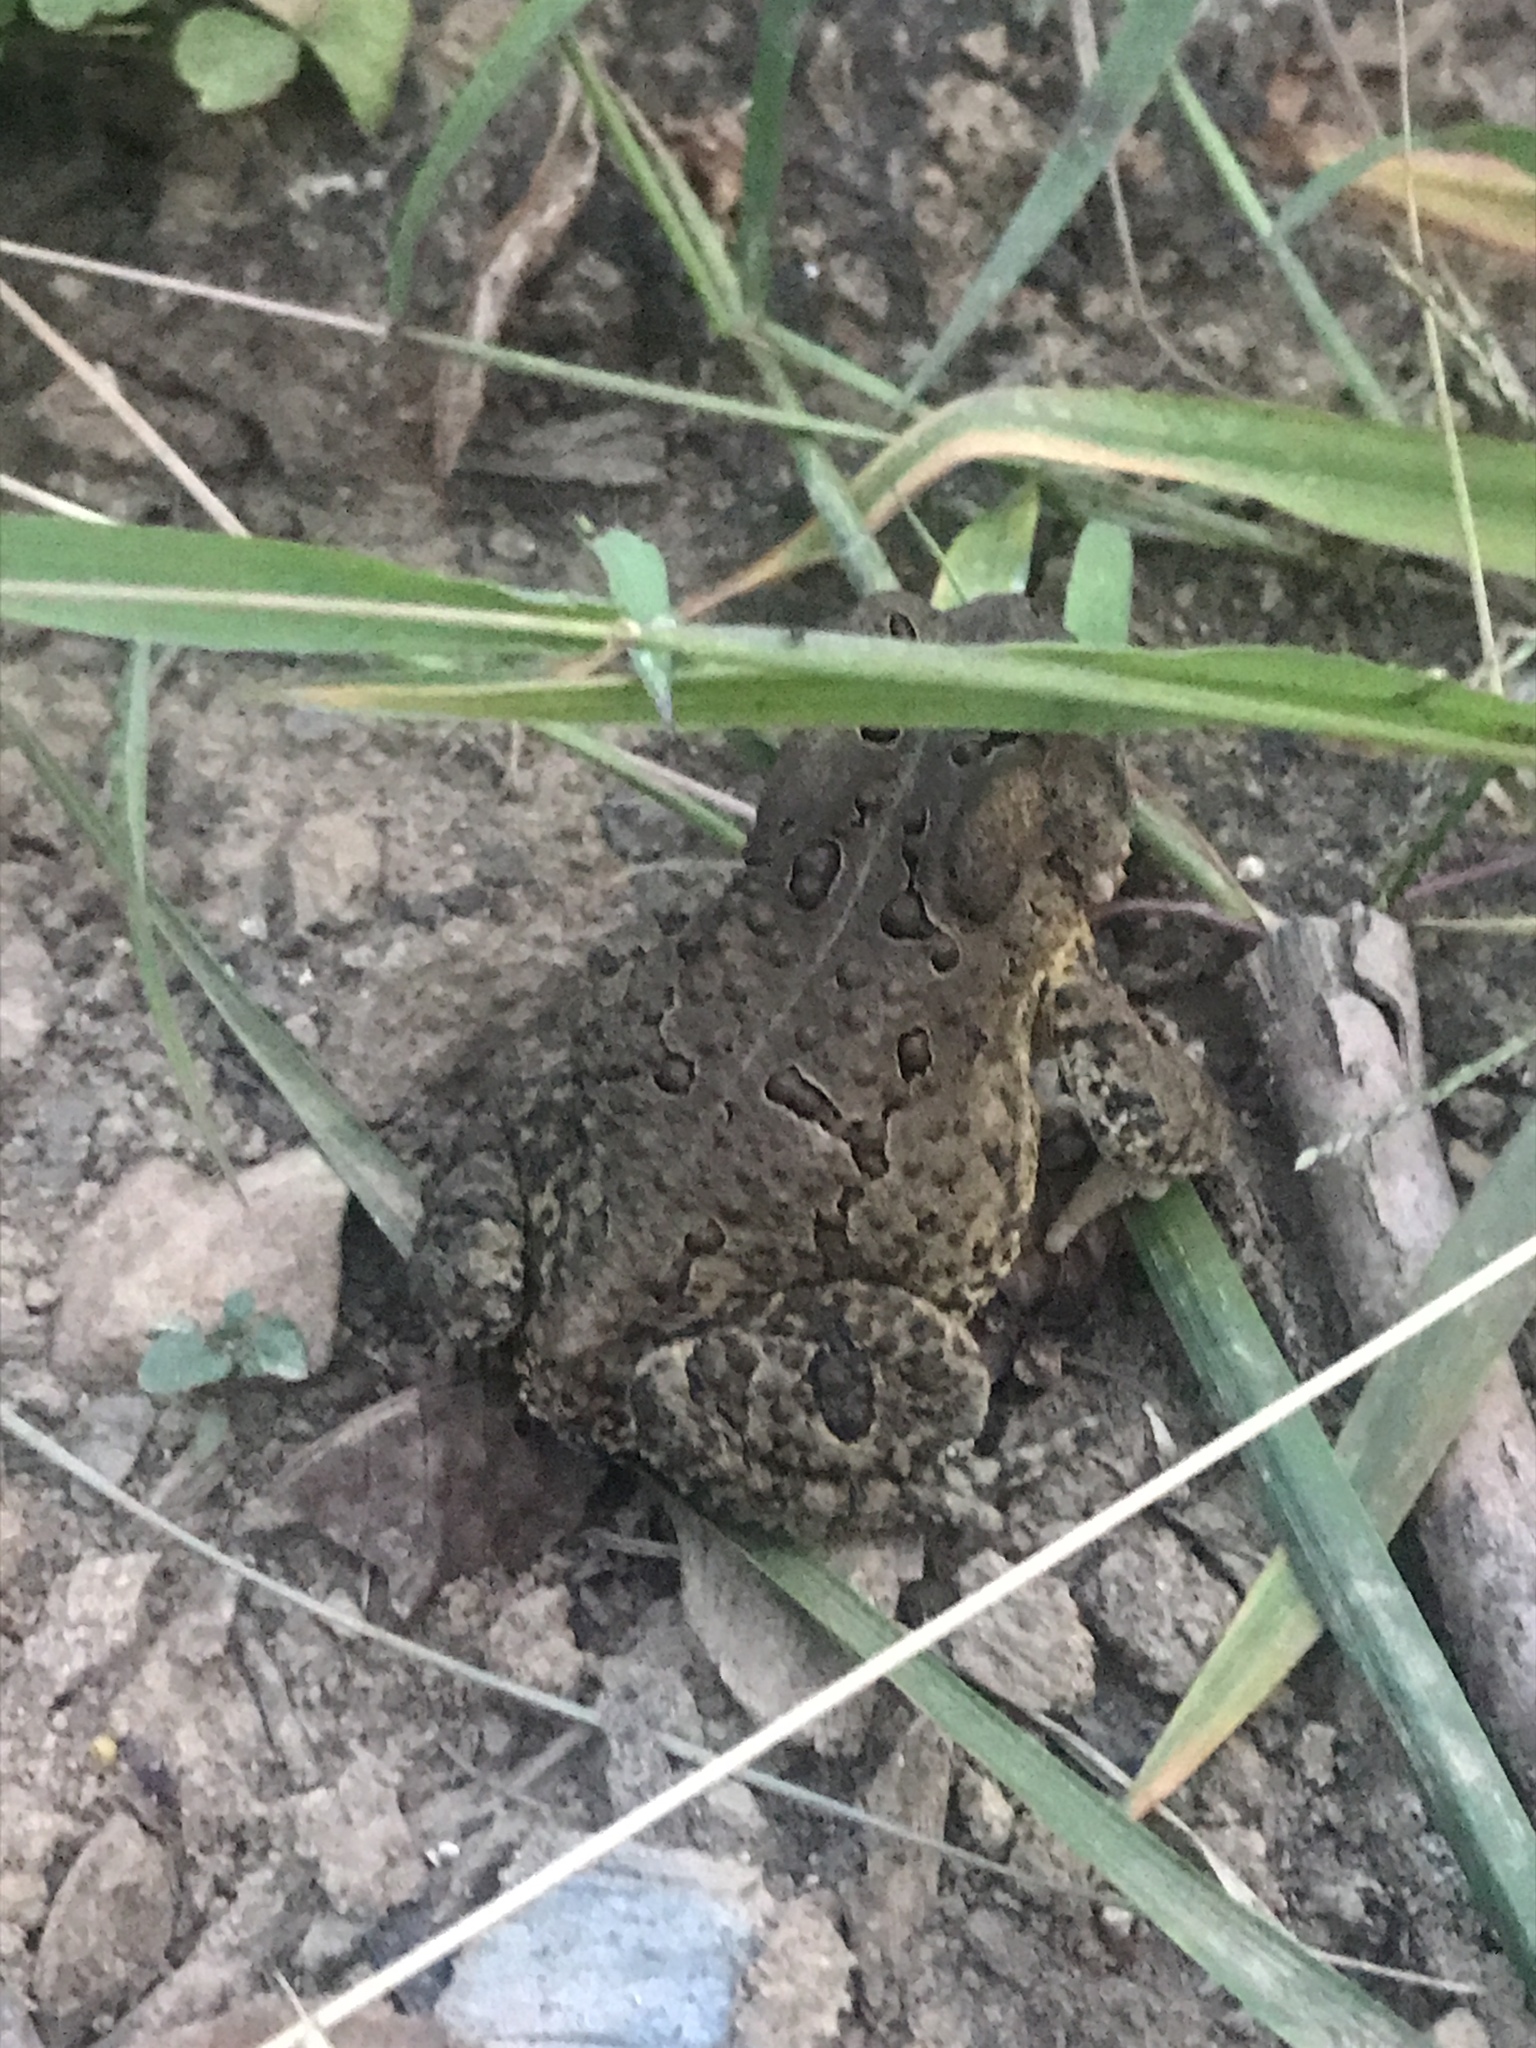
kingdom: Animalia
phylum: Chordata
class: Amphibia
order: Anura
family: Bufonidae
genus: Anaxyrus
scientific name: Anaxyrus americanus
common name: American toad
